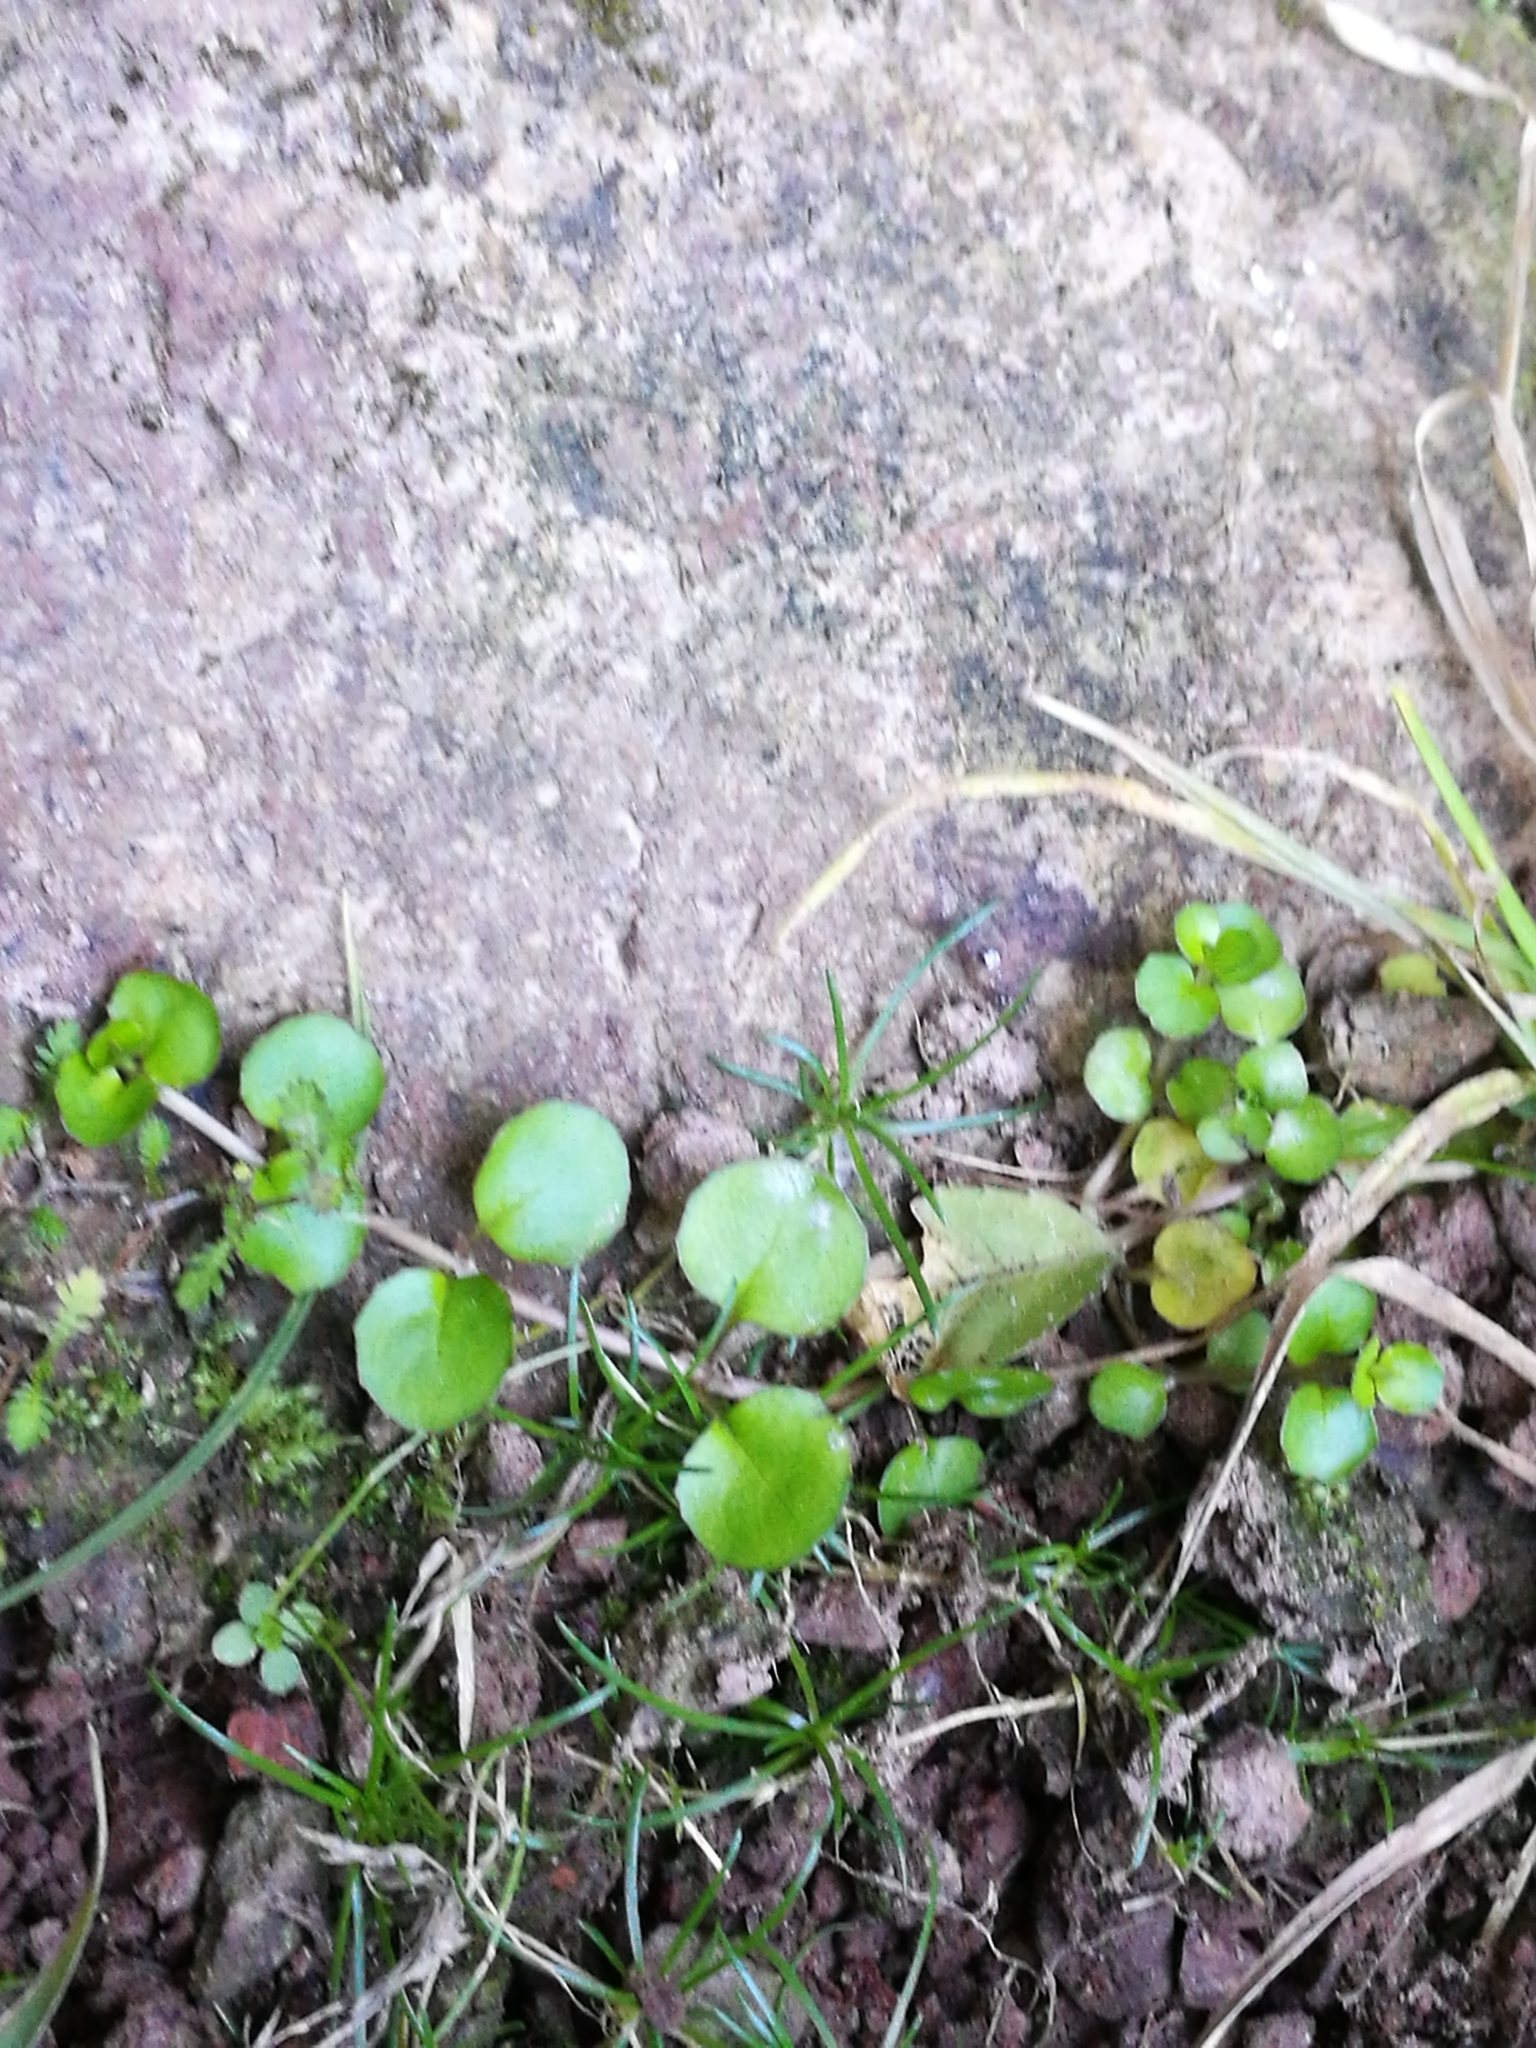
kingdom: Plantae
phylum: Tracheophyta
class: Magnoliopsida
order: Myrtales
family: Onagraceae
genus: Epilobium
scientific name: Epilobium nummularifolium
